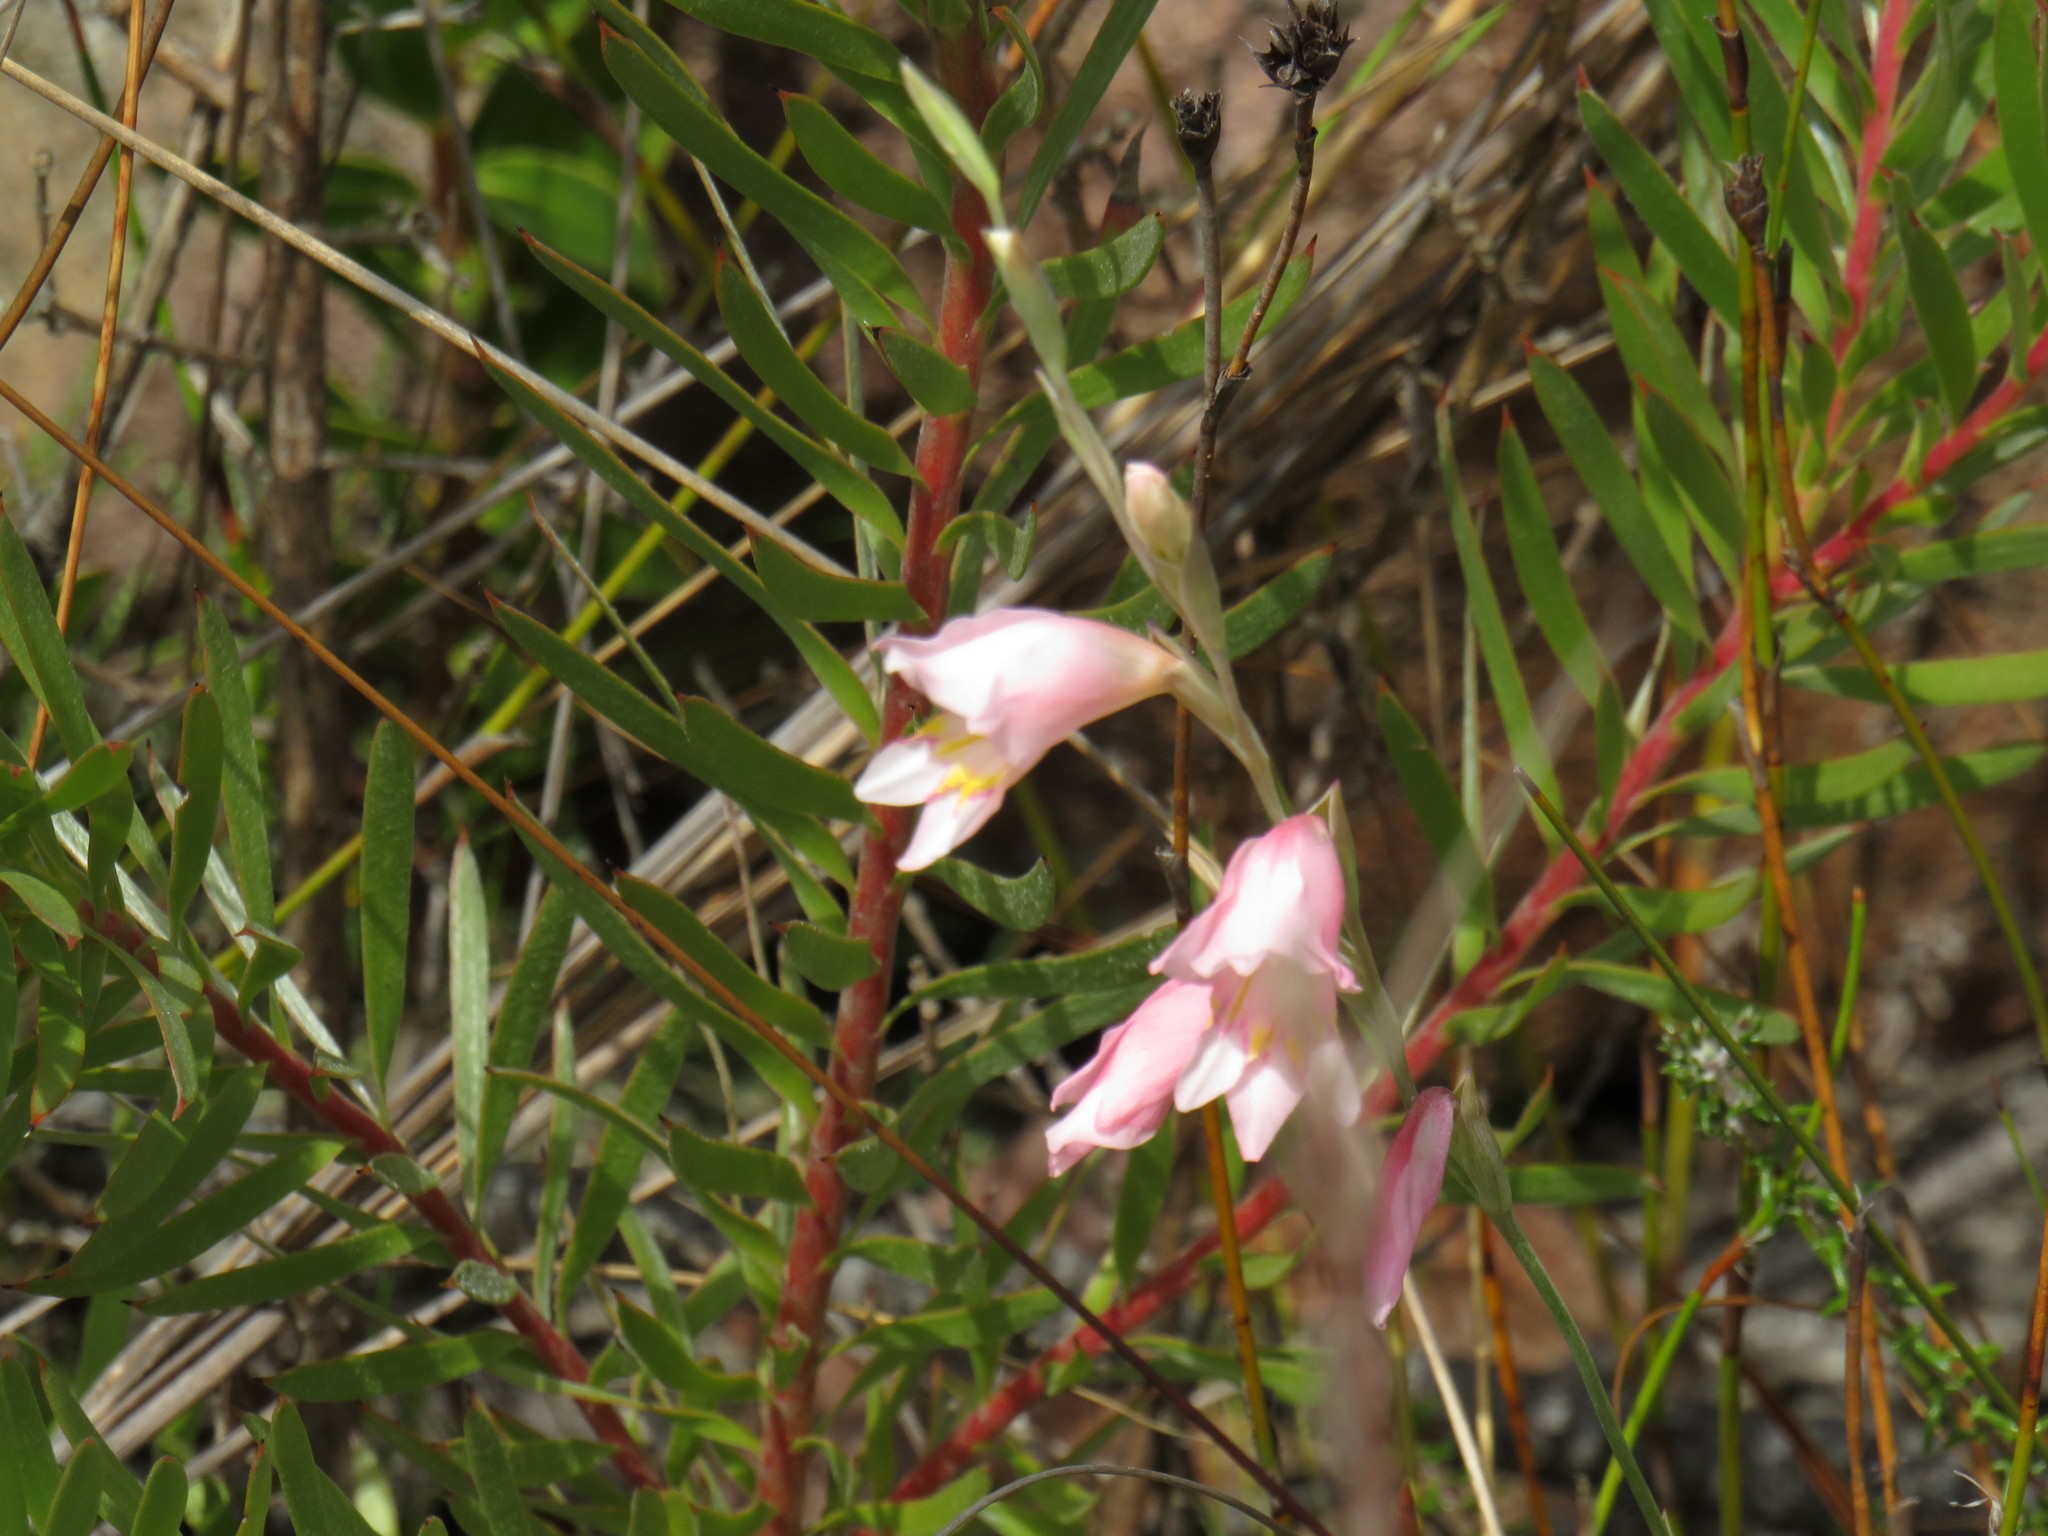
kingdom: Plantae
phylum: Tracheophyta
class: Liliopsida
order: Asparagales
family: Iridaceae
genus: Gladiolus
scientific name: Gladiolus brevifolius
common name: March pypie
